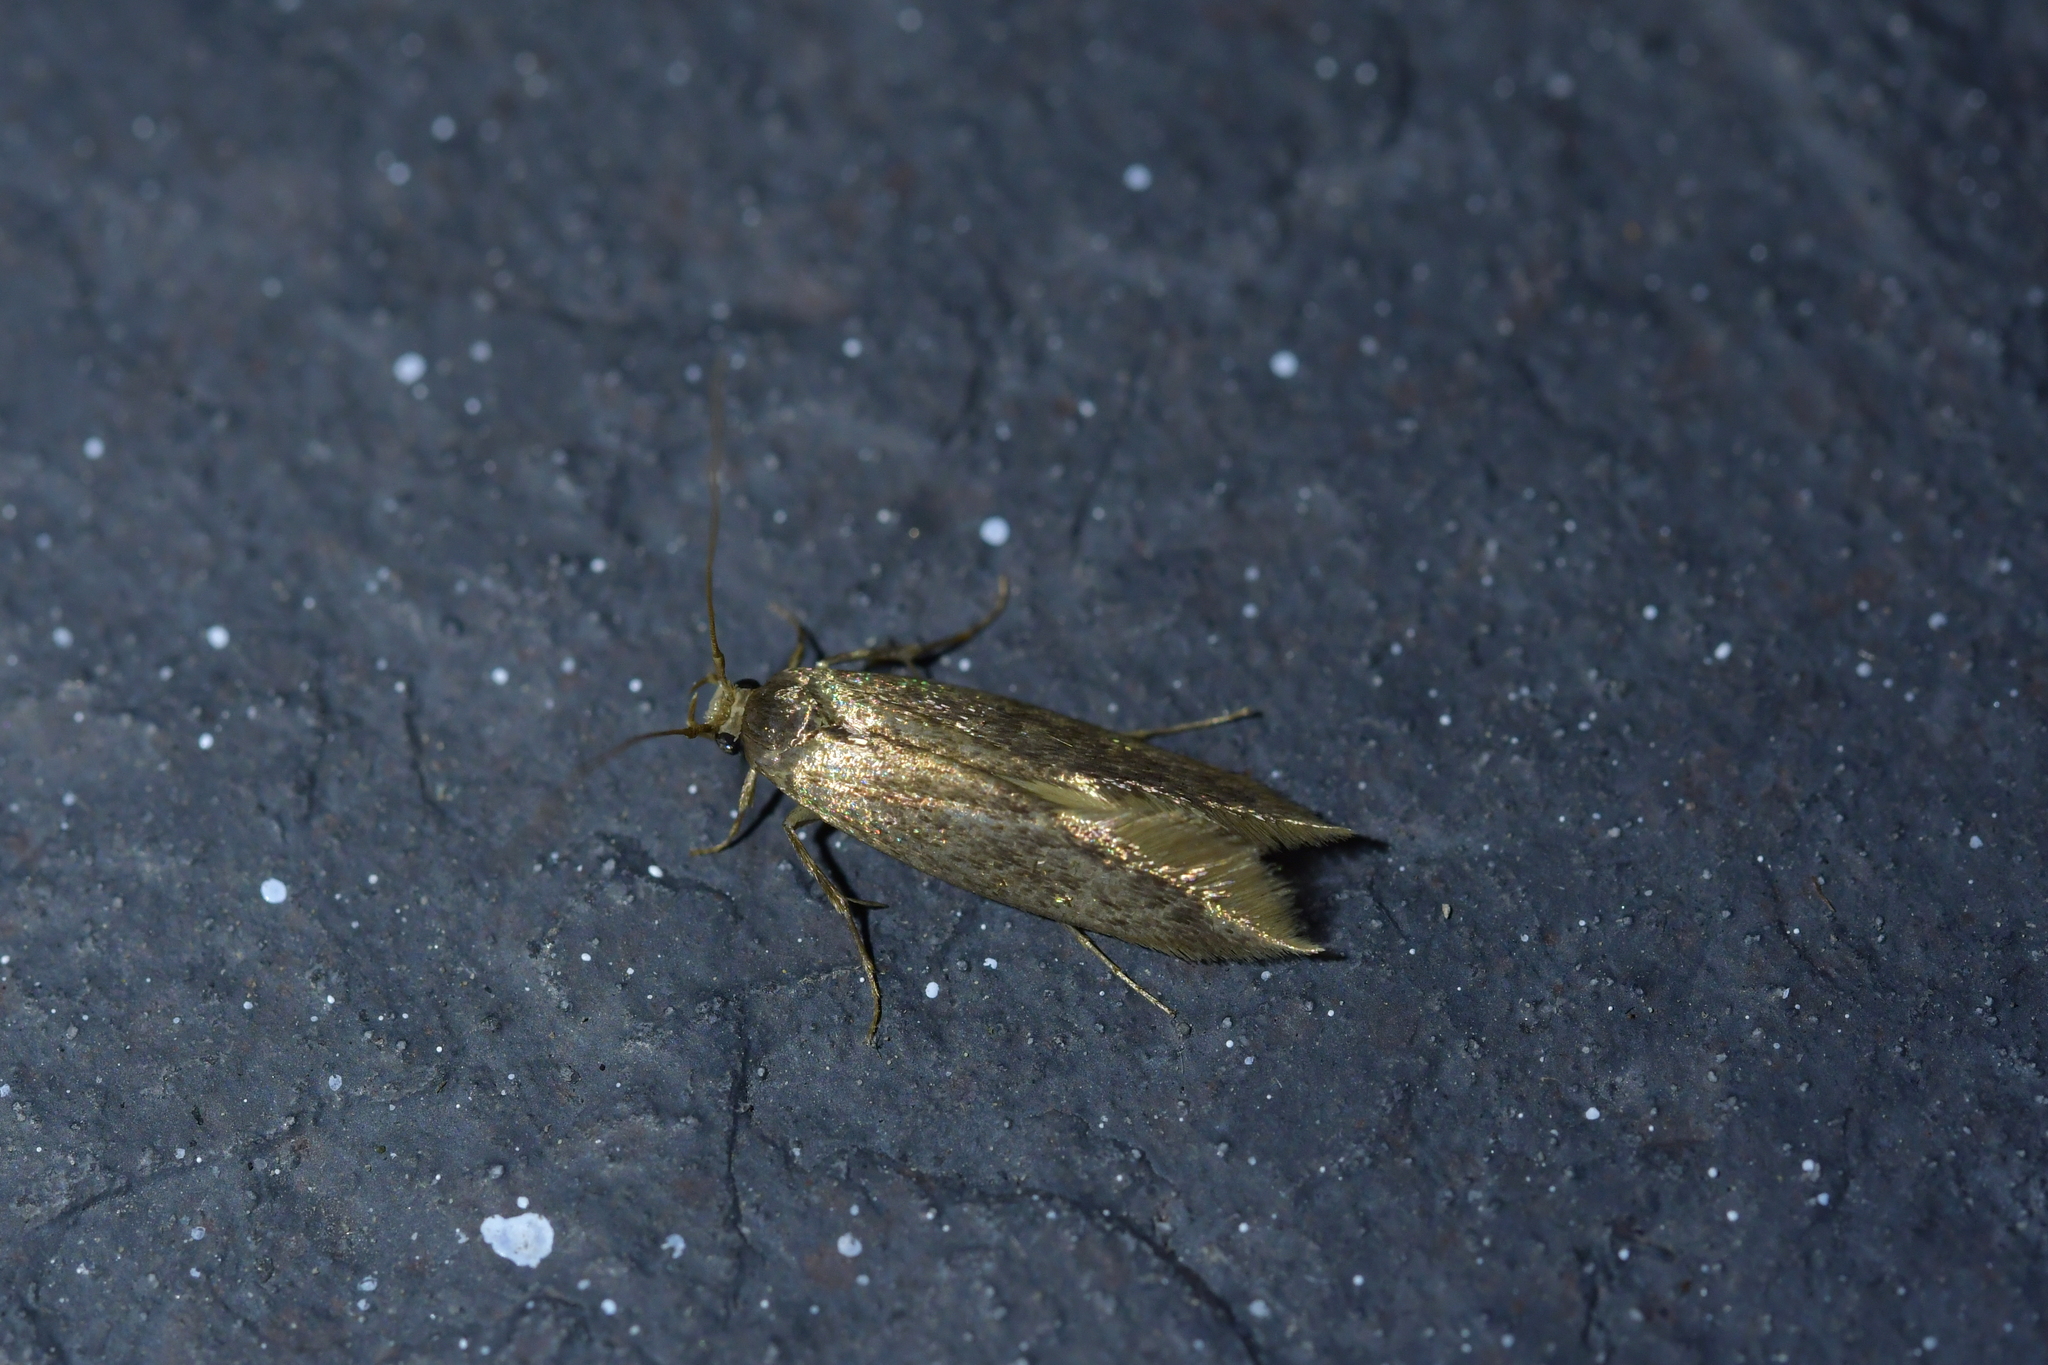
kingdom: Animalia
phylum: Arthropoda
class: Insecta
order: Lepidoptera
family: Tineidae
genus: Opogona
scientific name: Opogona omoscopa
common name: Moth
